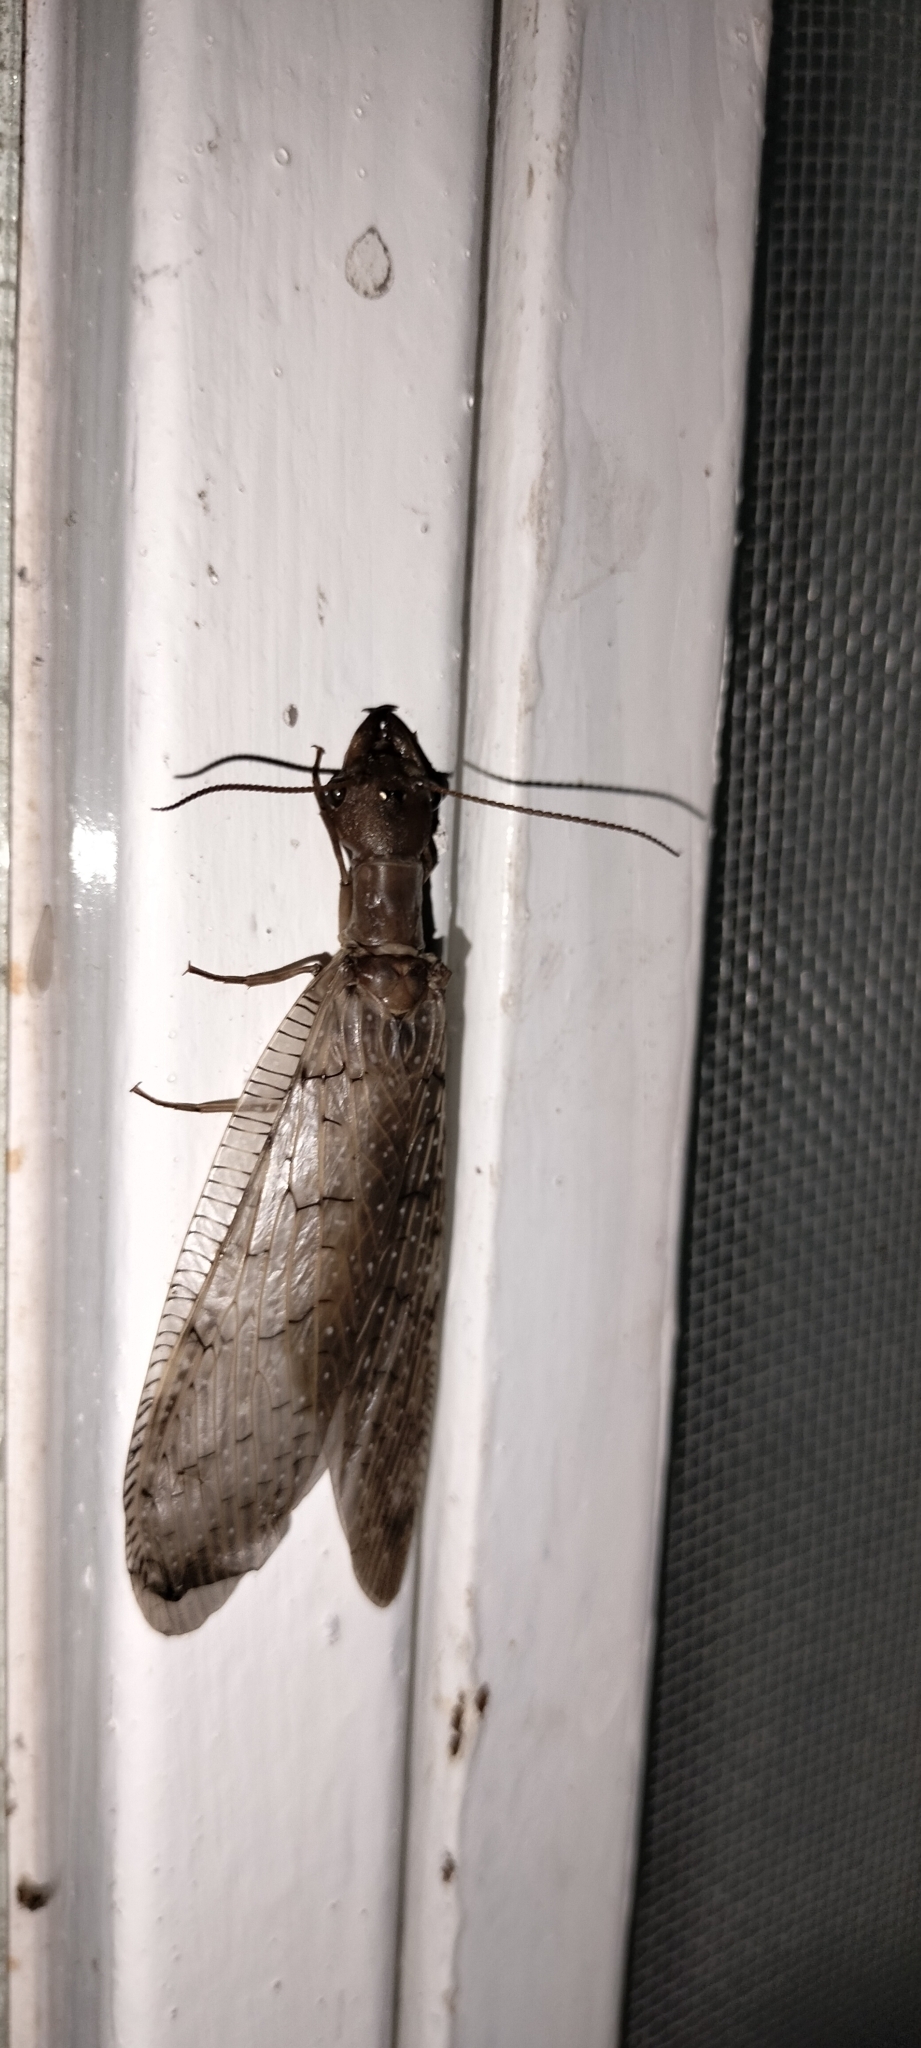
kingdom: Animalia
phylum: Arthropoda
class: Insecta
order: Megaloptera
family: Corydalidae
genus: Corydalus
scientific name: Corydalus luteus
